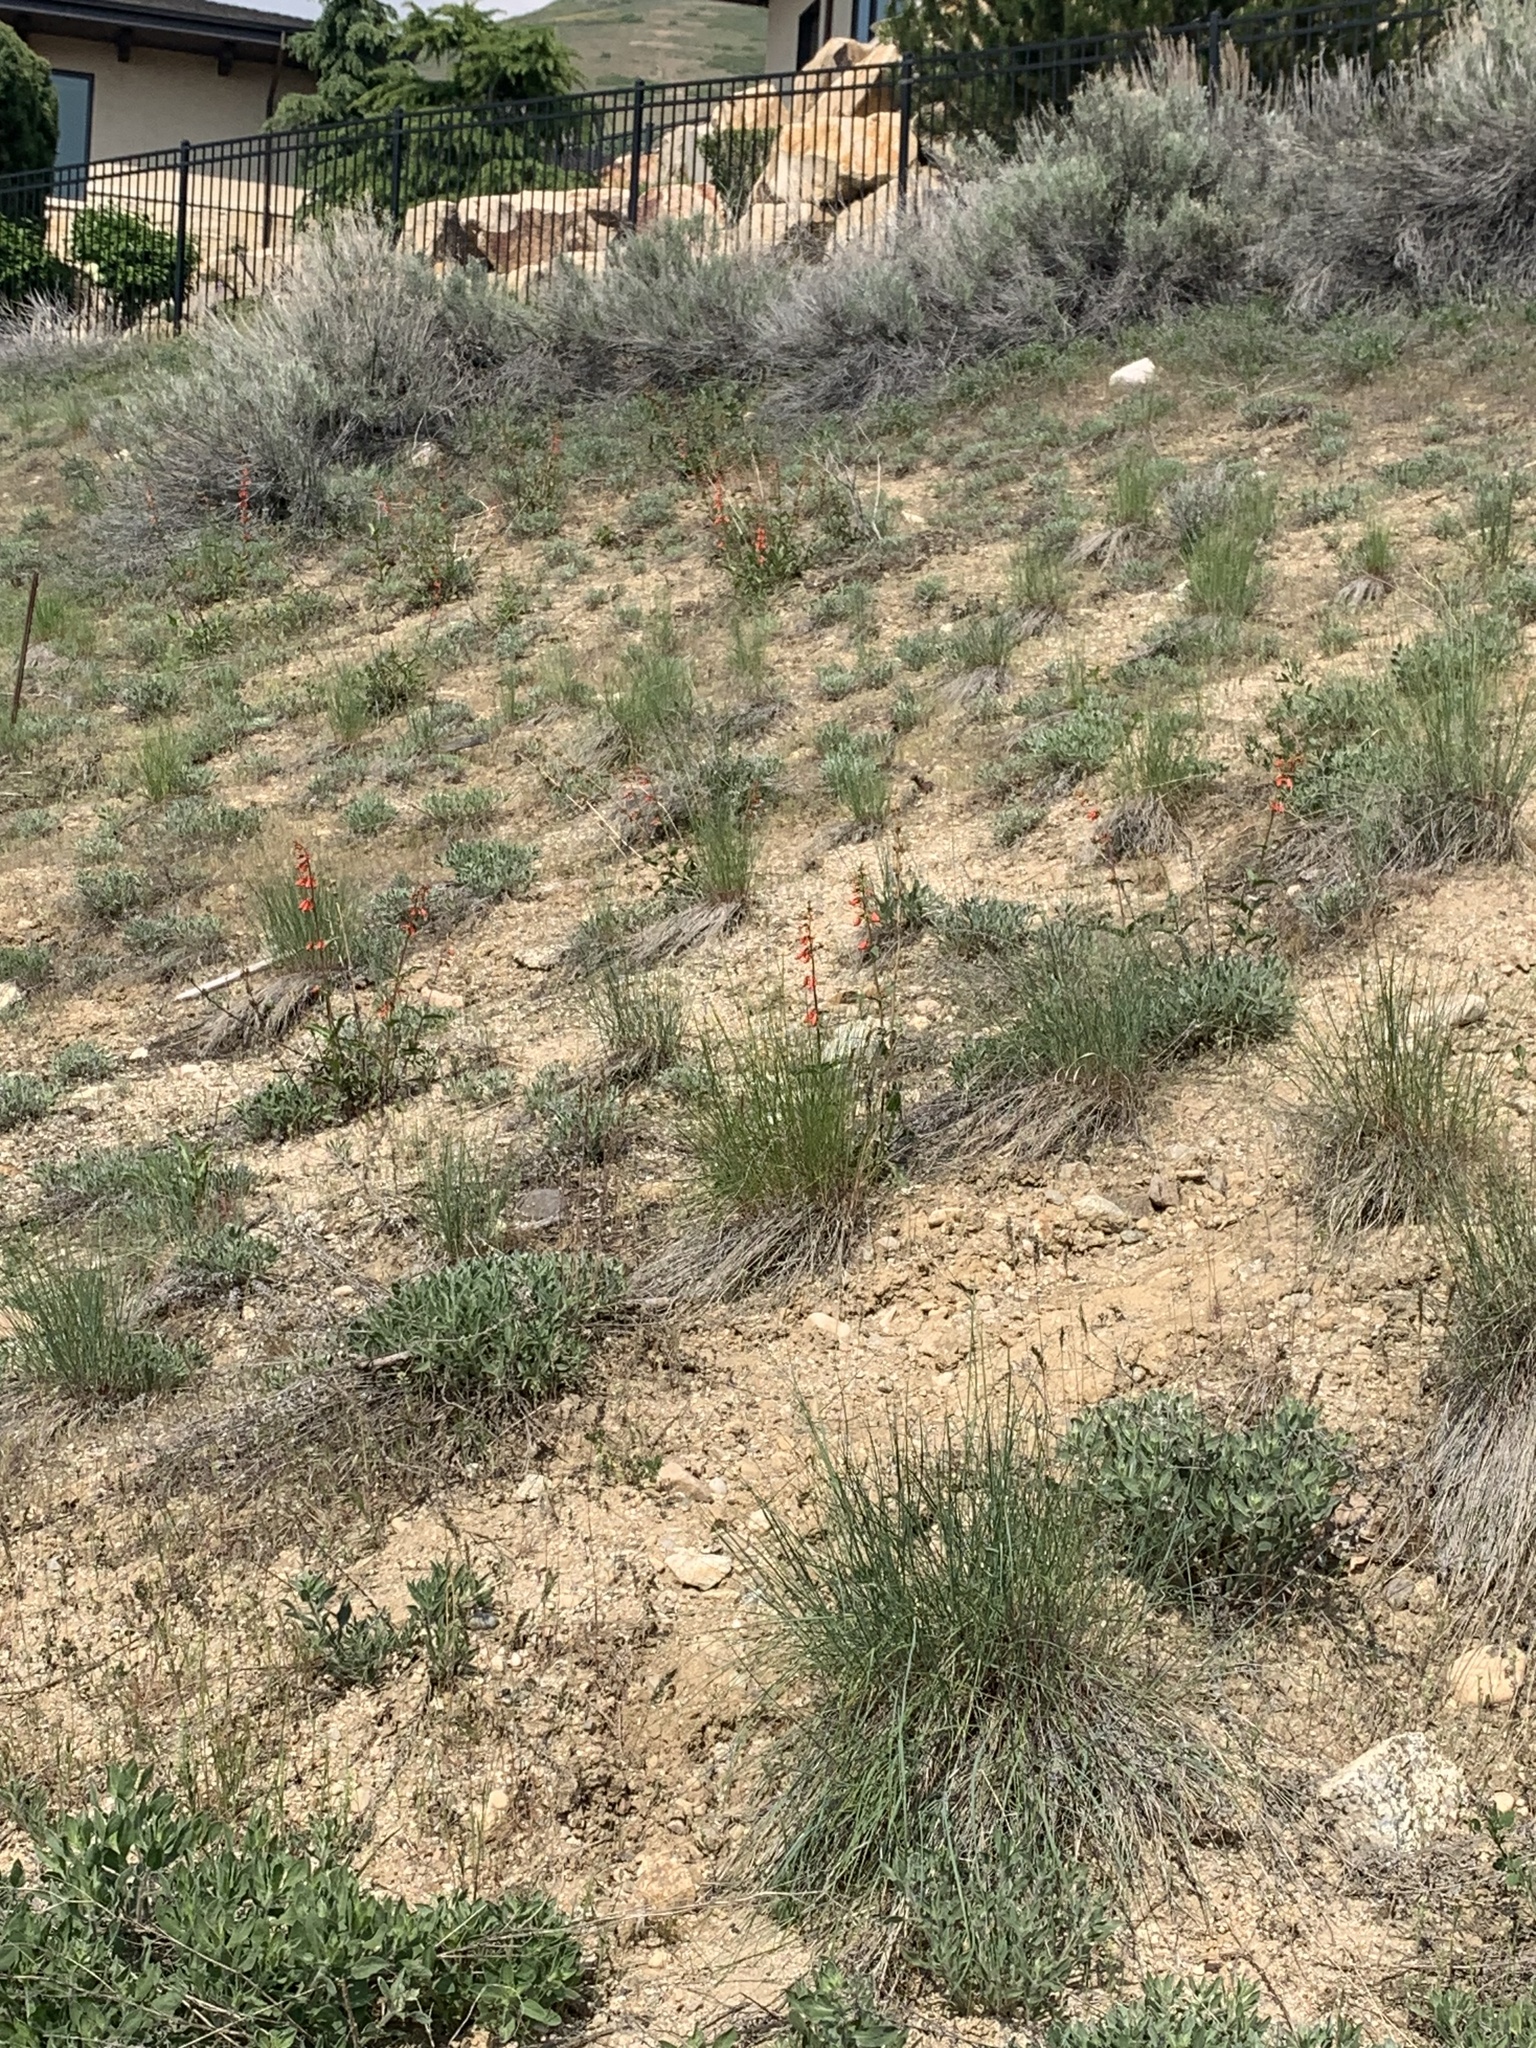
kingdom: Plantae
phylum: Tracheophyta
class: Magnoliopsida
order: Lamiales
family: Plantaginaceae
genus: Penstemon
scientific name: Penstemon eatonii
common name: Eaton's penstemon
